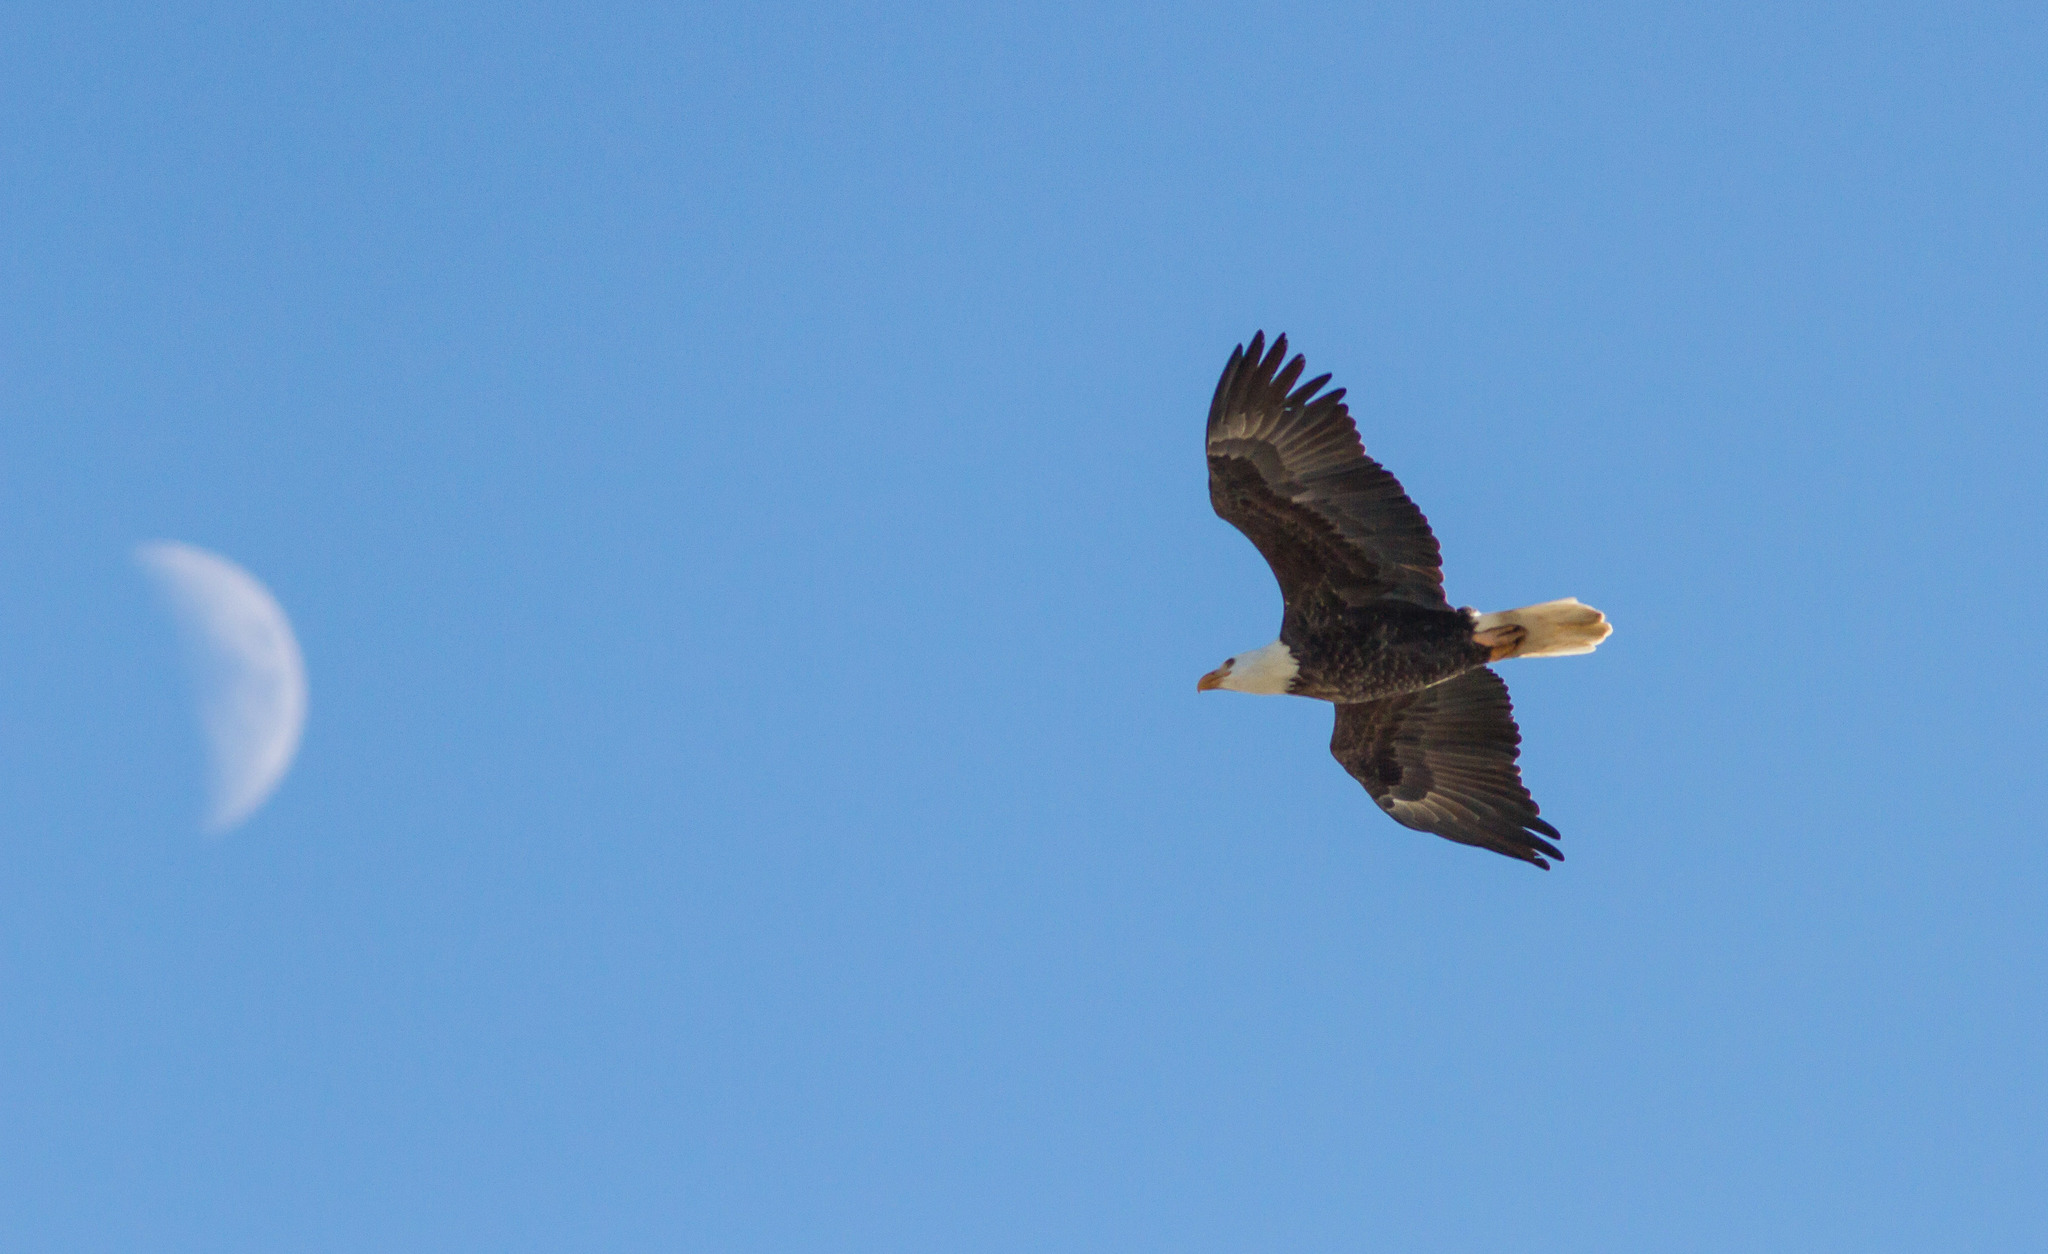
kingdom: Animalia
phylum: Chordata
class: Aves
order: Accipitriformes
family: Accipitridae
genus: Haliaeetus
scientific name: Haliaeetus leucocephalus
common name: Bald eagle
